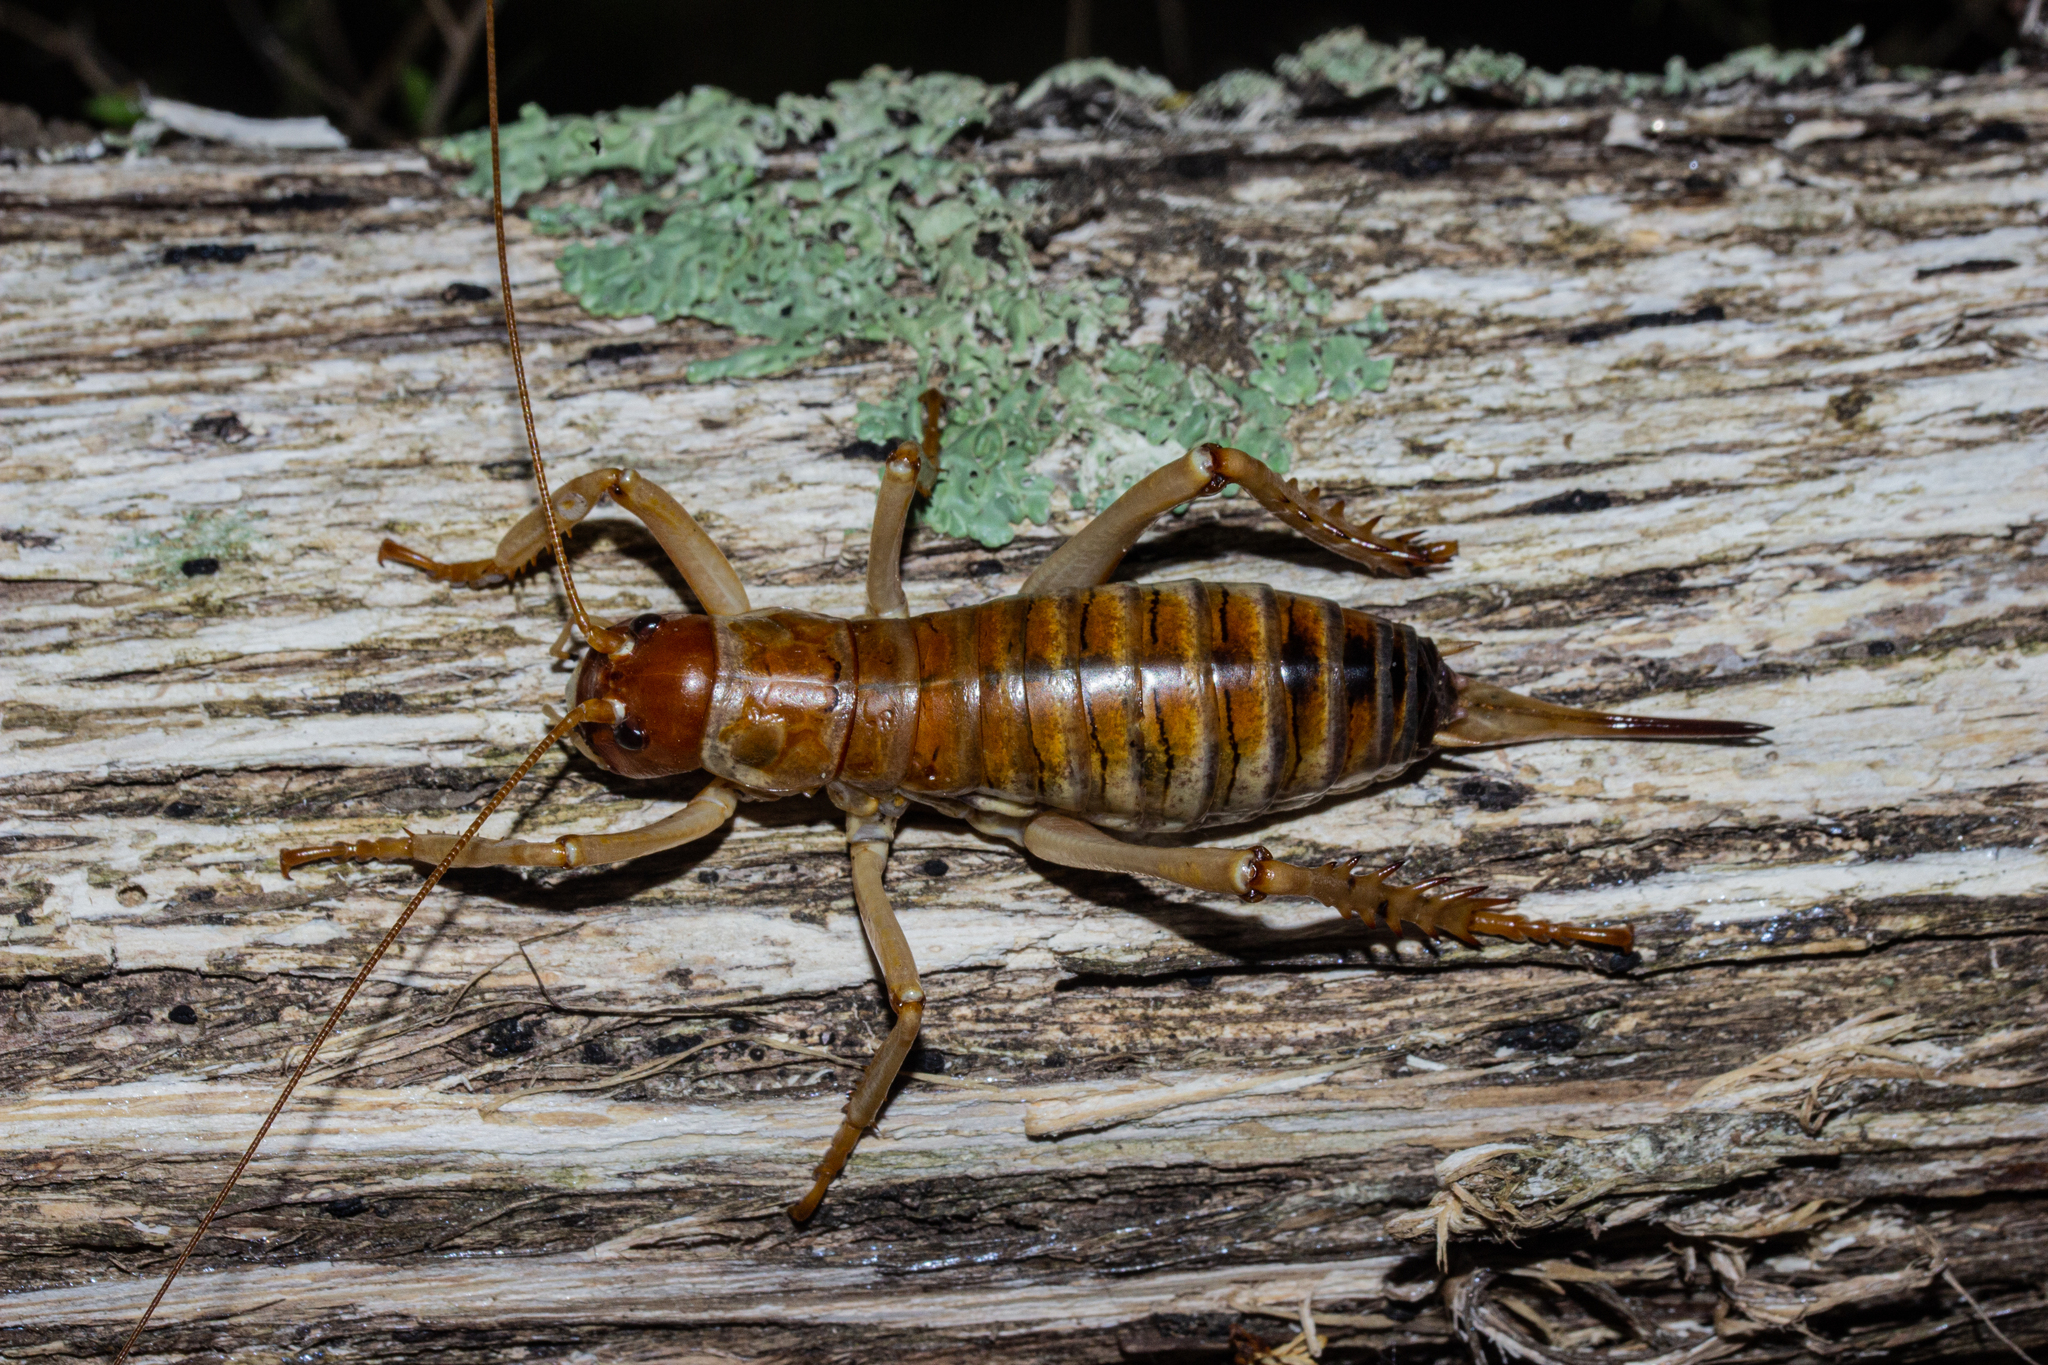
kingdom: Animalia
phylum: Arthropoda
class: Insecta
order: Orthoptera
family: Anostostomatidae
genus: Hemideina
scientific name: Hemideina ricta
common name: Banks peninsula tree weta
